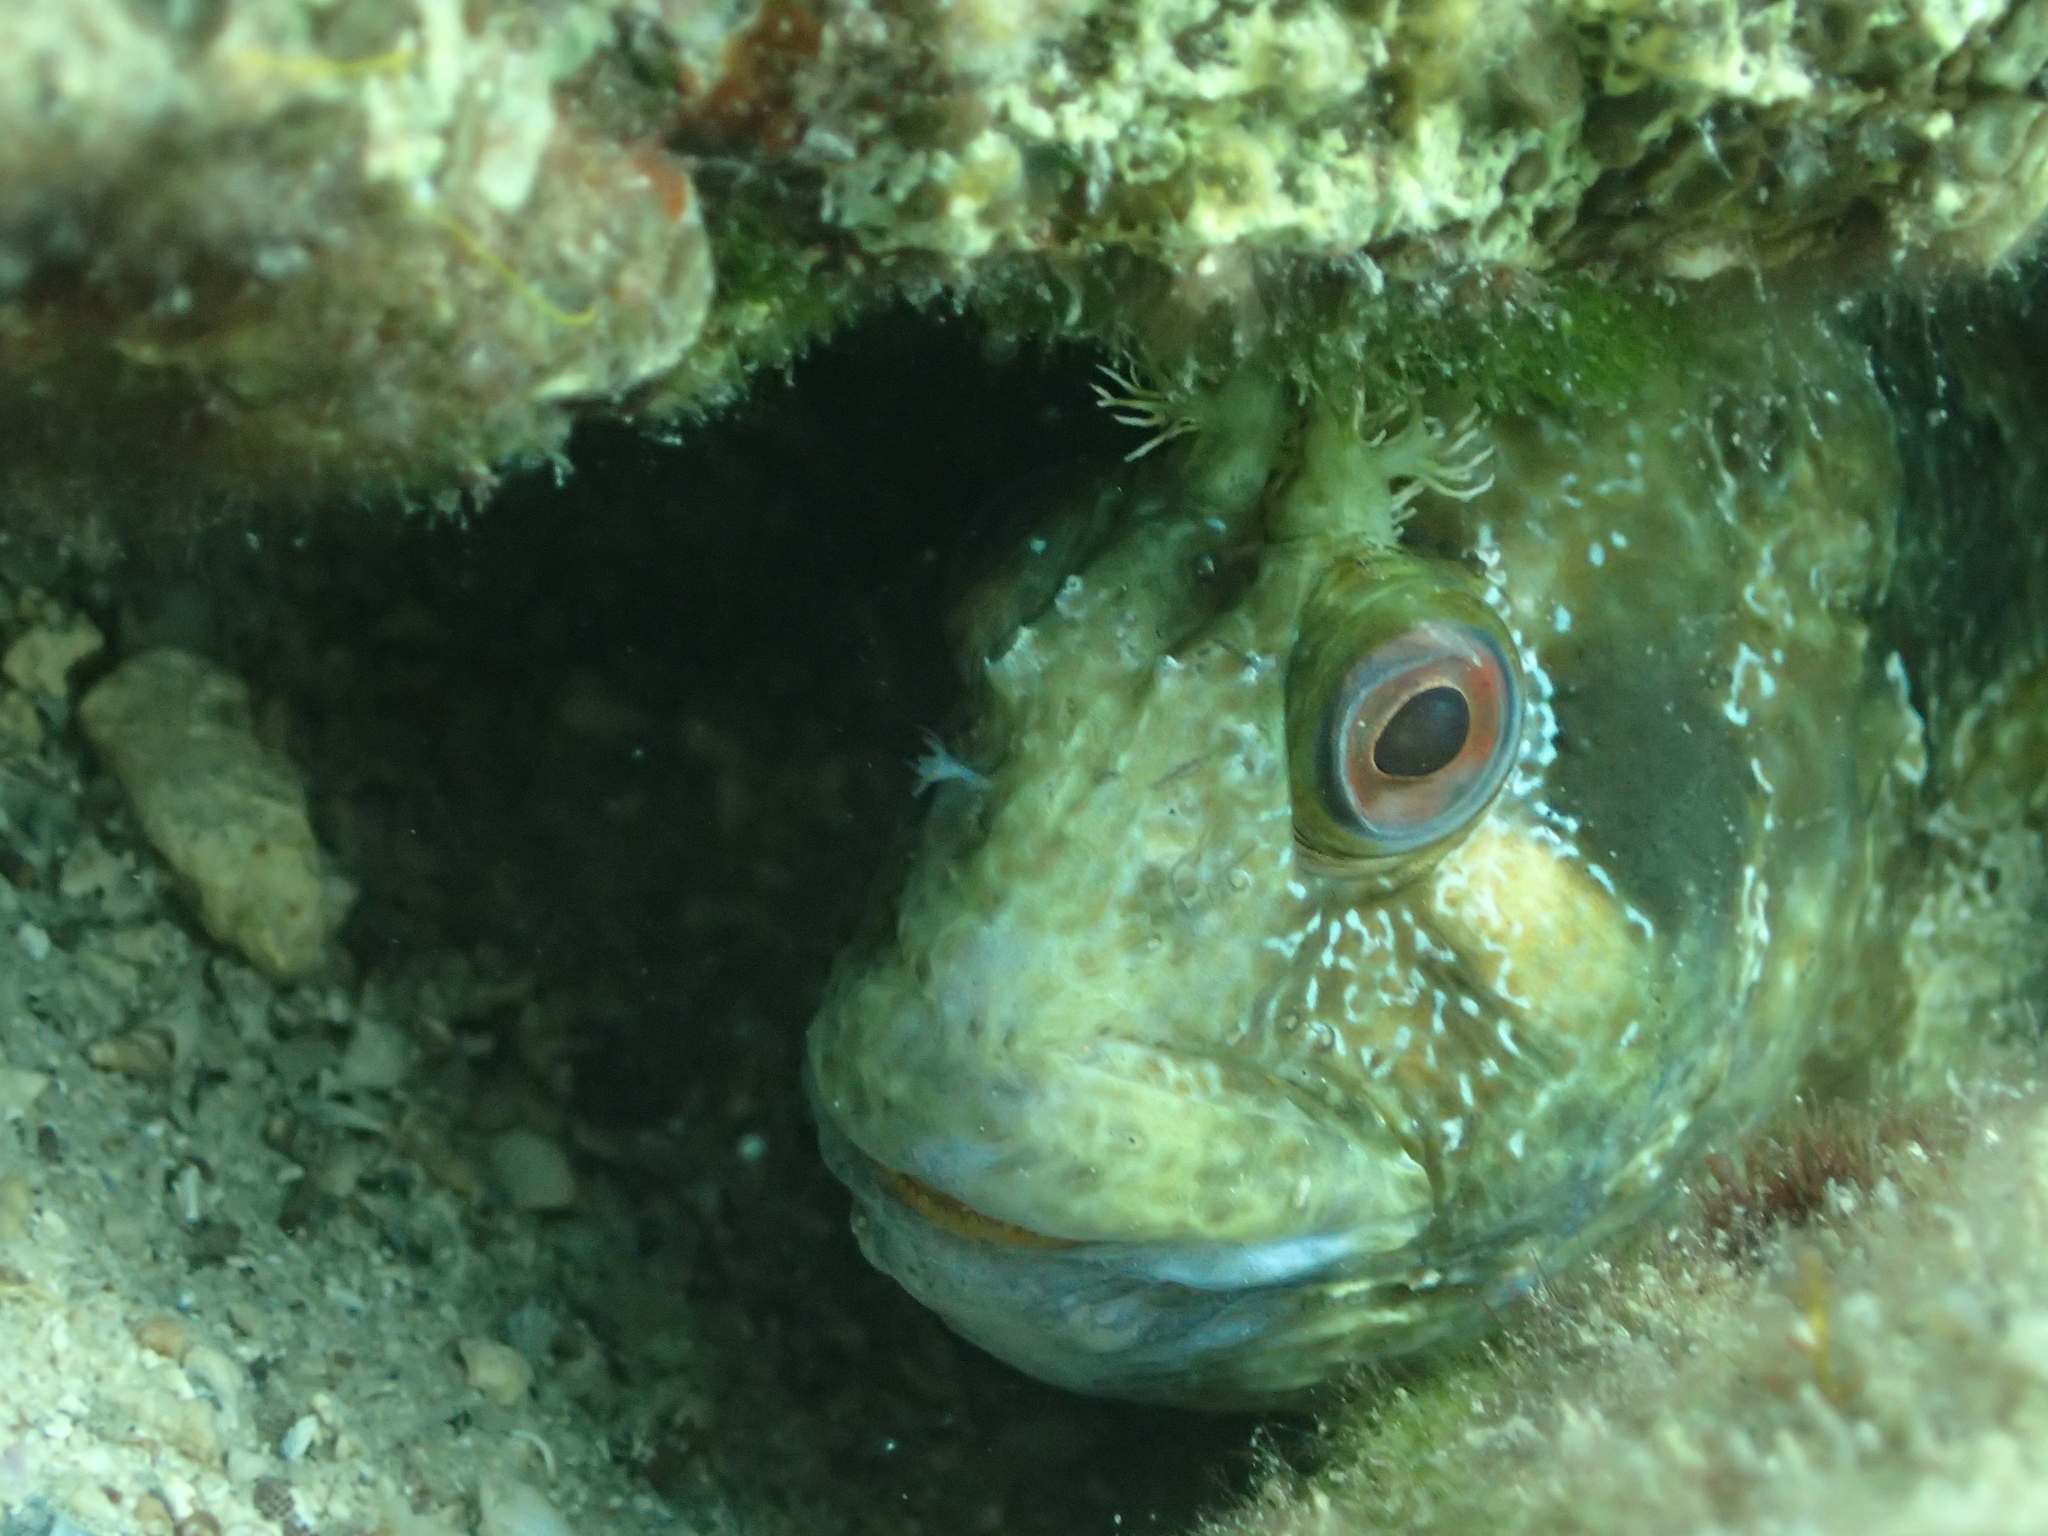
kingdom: Animalia
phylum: Chordata
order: Perciformes
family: Blenniidae
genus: Parablennius
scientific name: Parablennius gattorugine
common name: Tompot blenny
